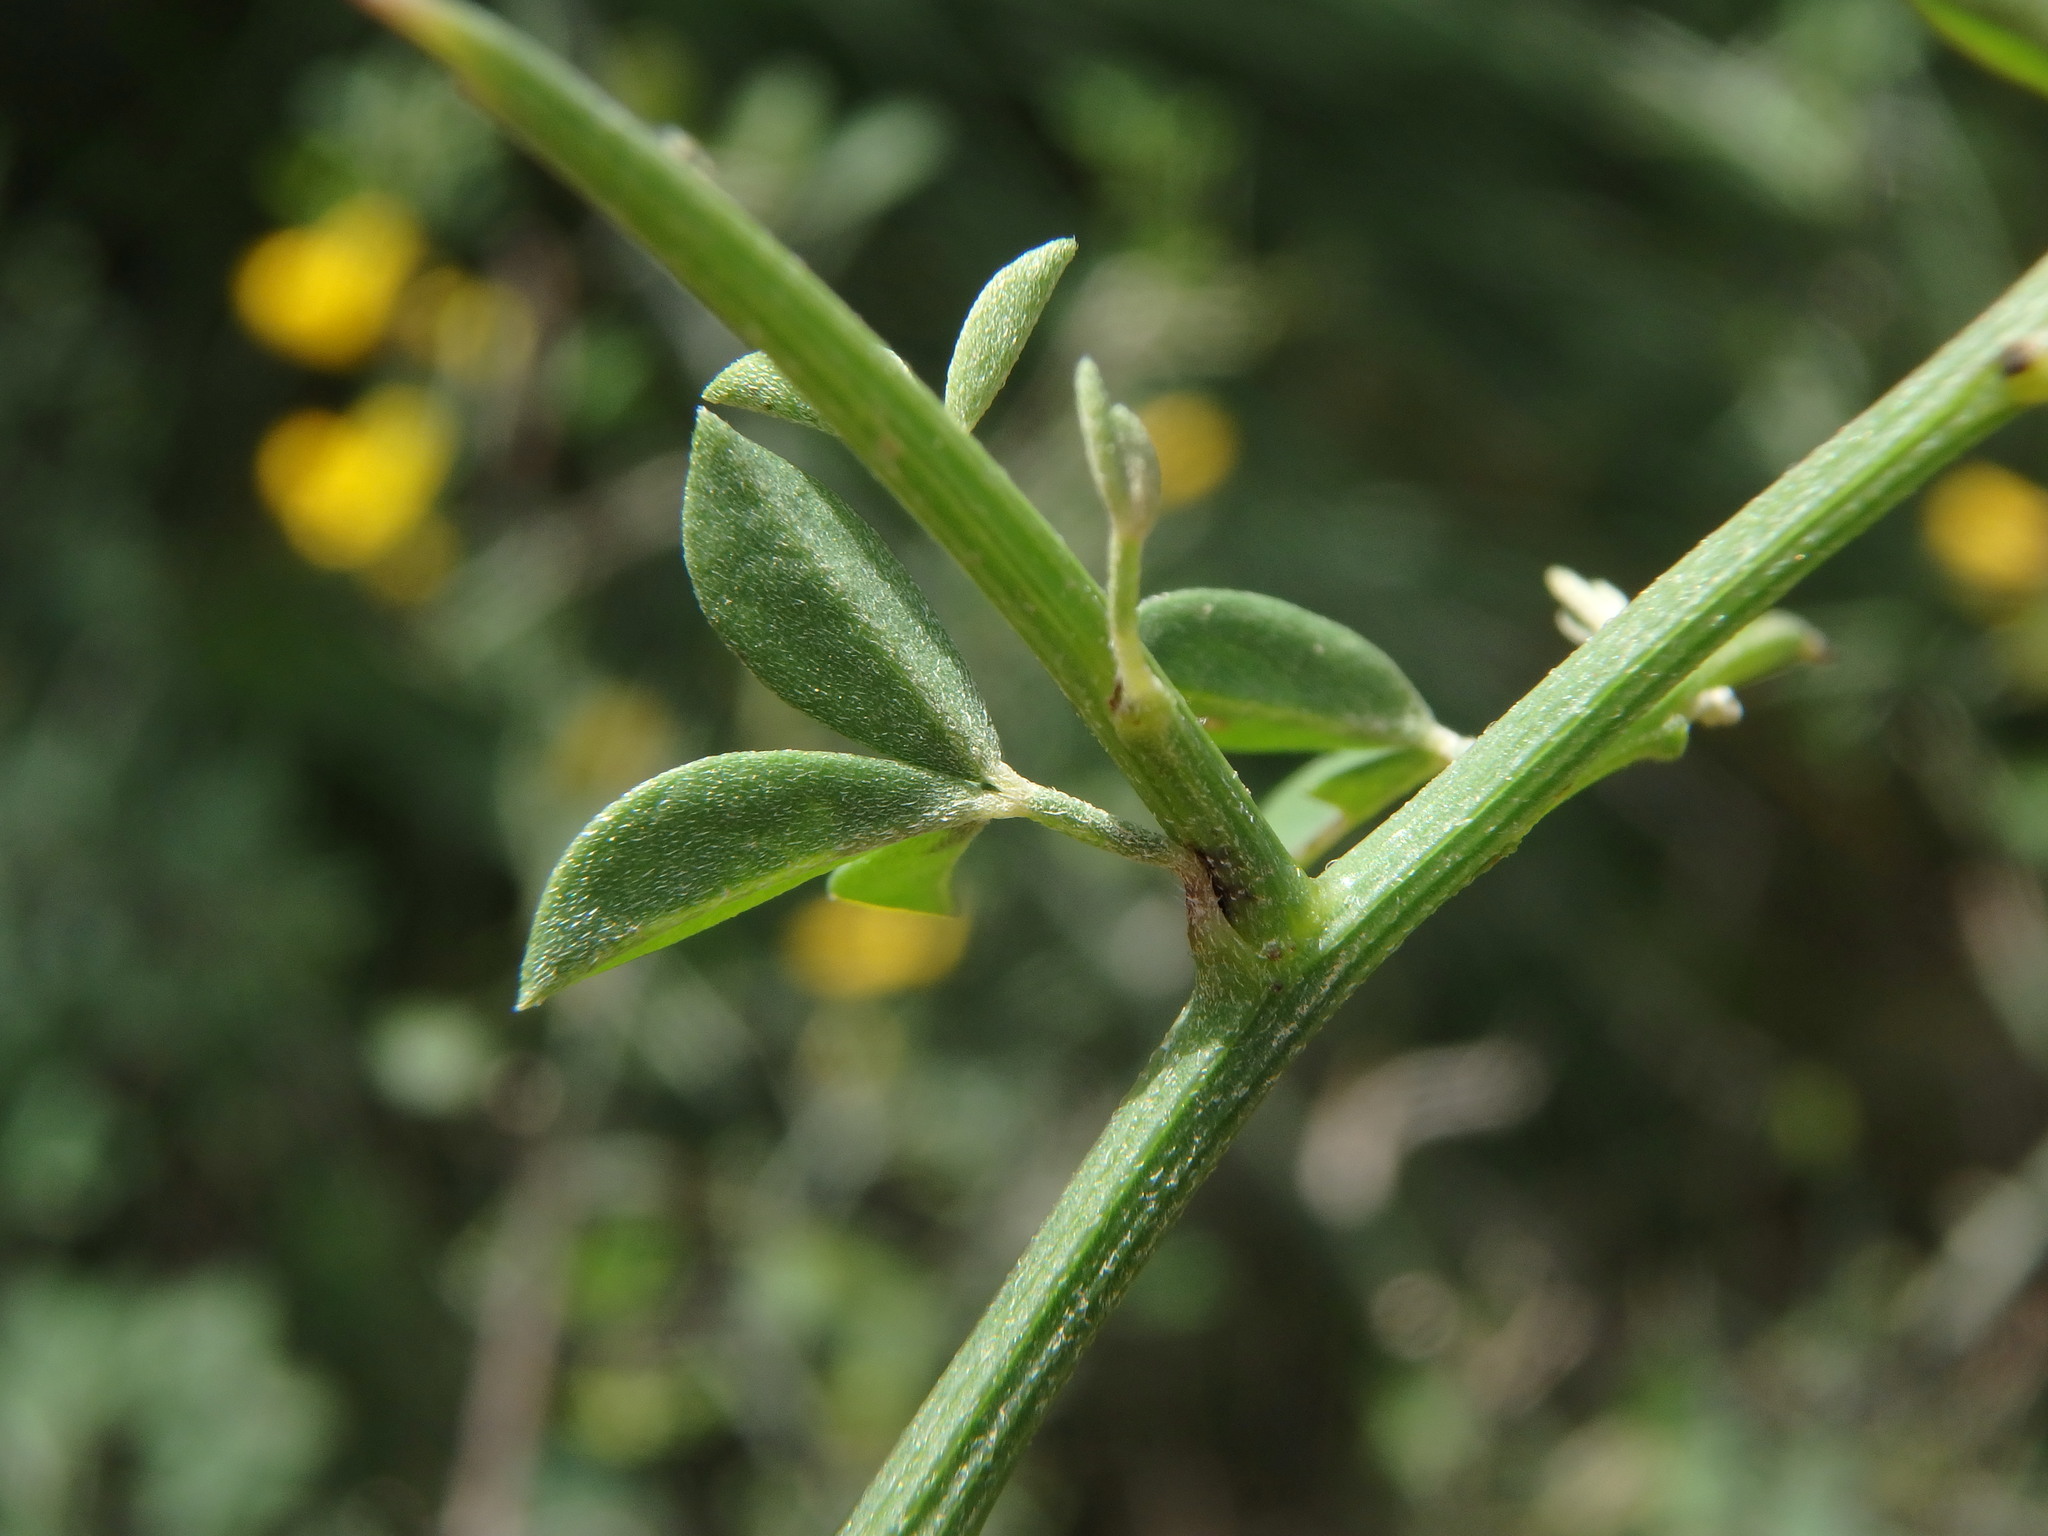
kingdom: Plantae
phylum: Tracheophyta
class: Magnoliopsida
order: Fabales
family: Fabaceae
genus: Calicotome
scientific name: Calicotome spinosa
